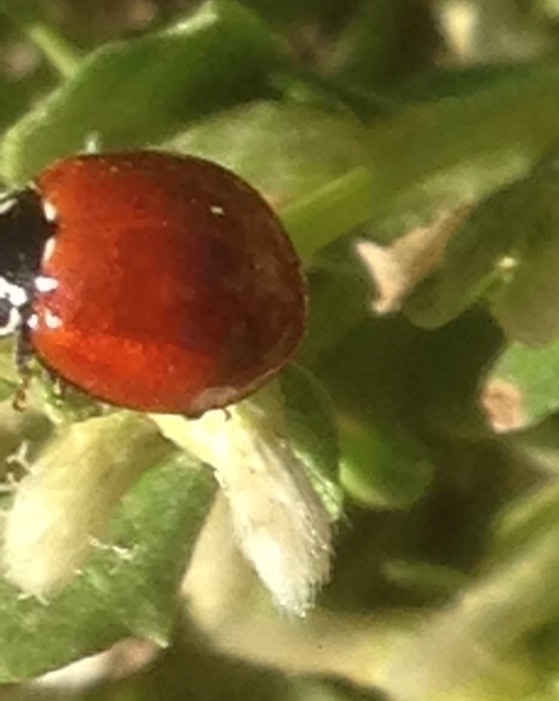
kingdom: Animalia
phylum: Arthropoda
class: Insecta
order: Coleoptera
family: Coccinellidae
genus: Cycloneda
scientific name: Cycloneda sanguinea
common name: Ladybird beetle
